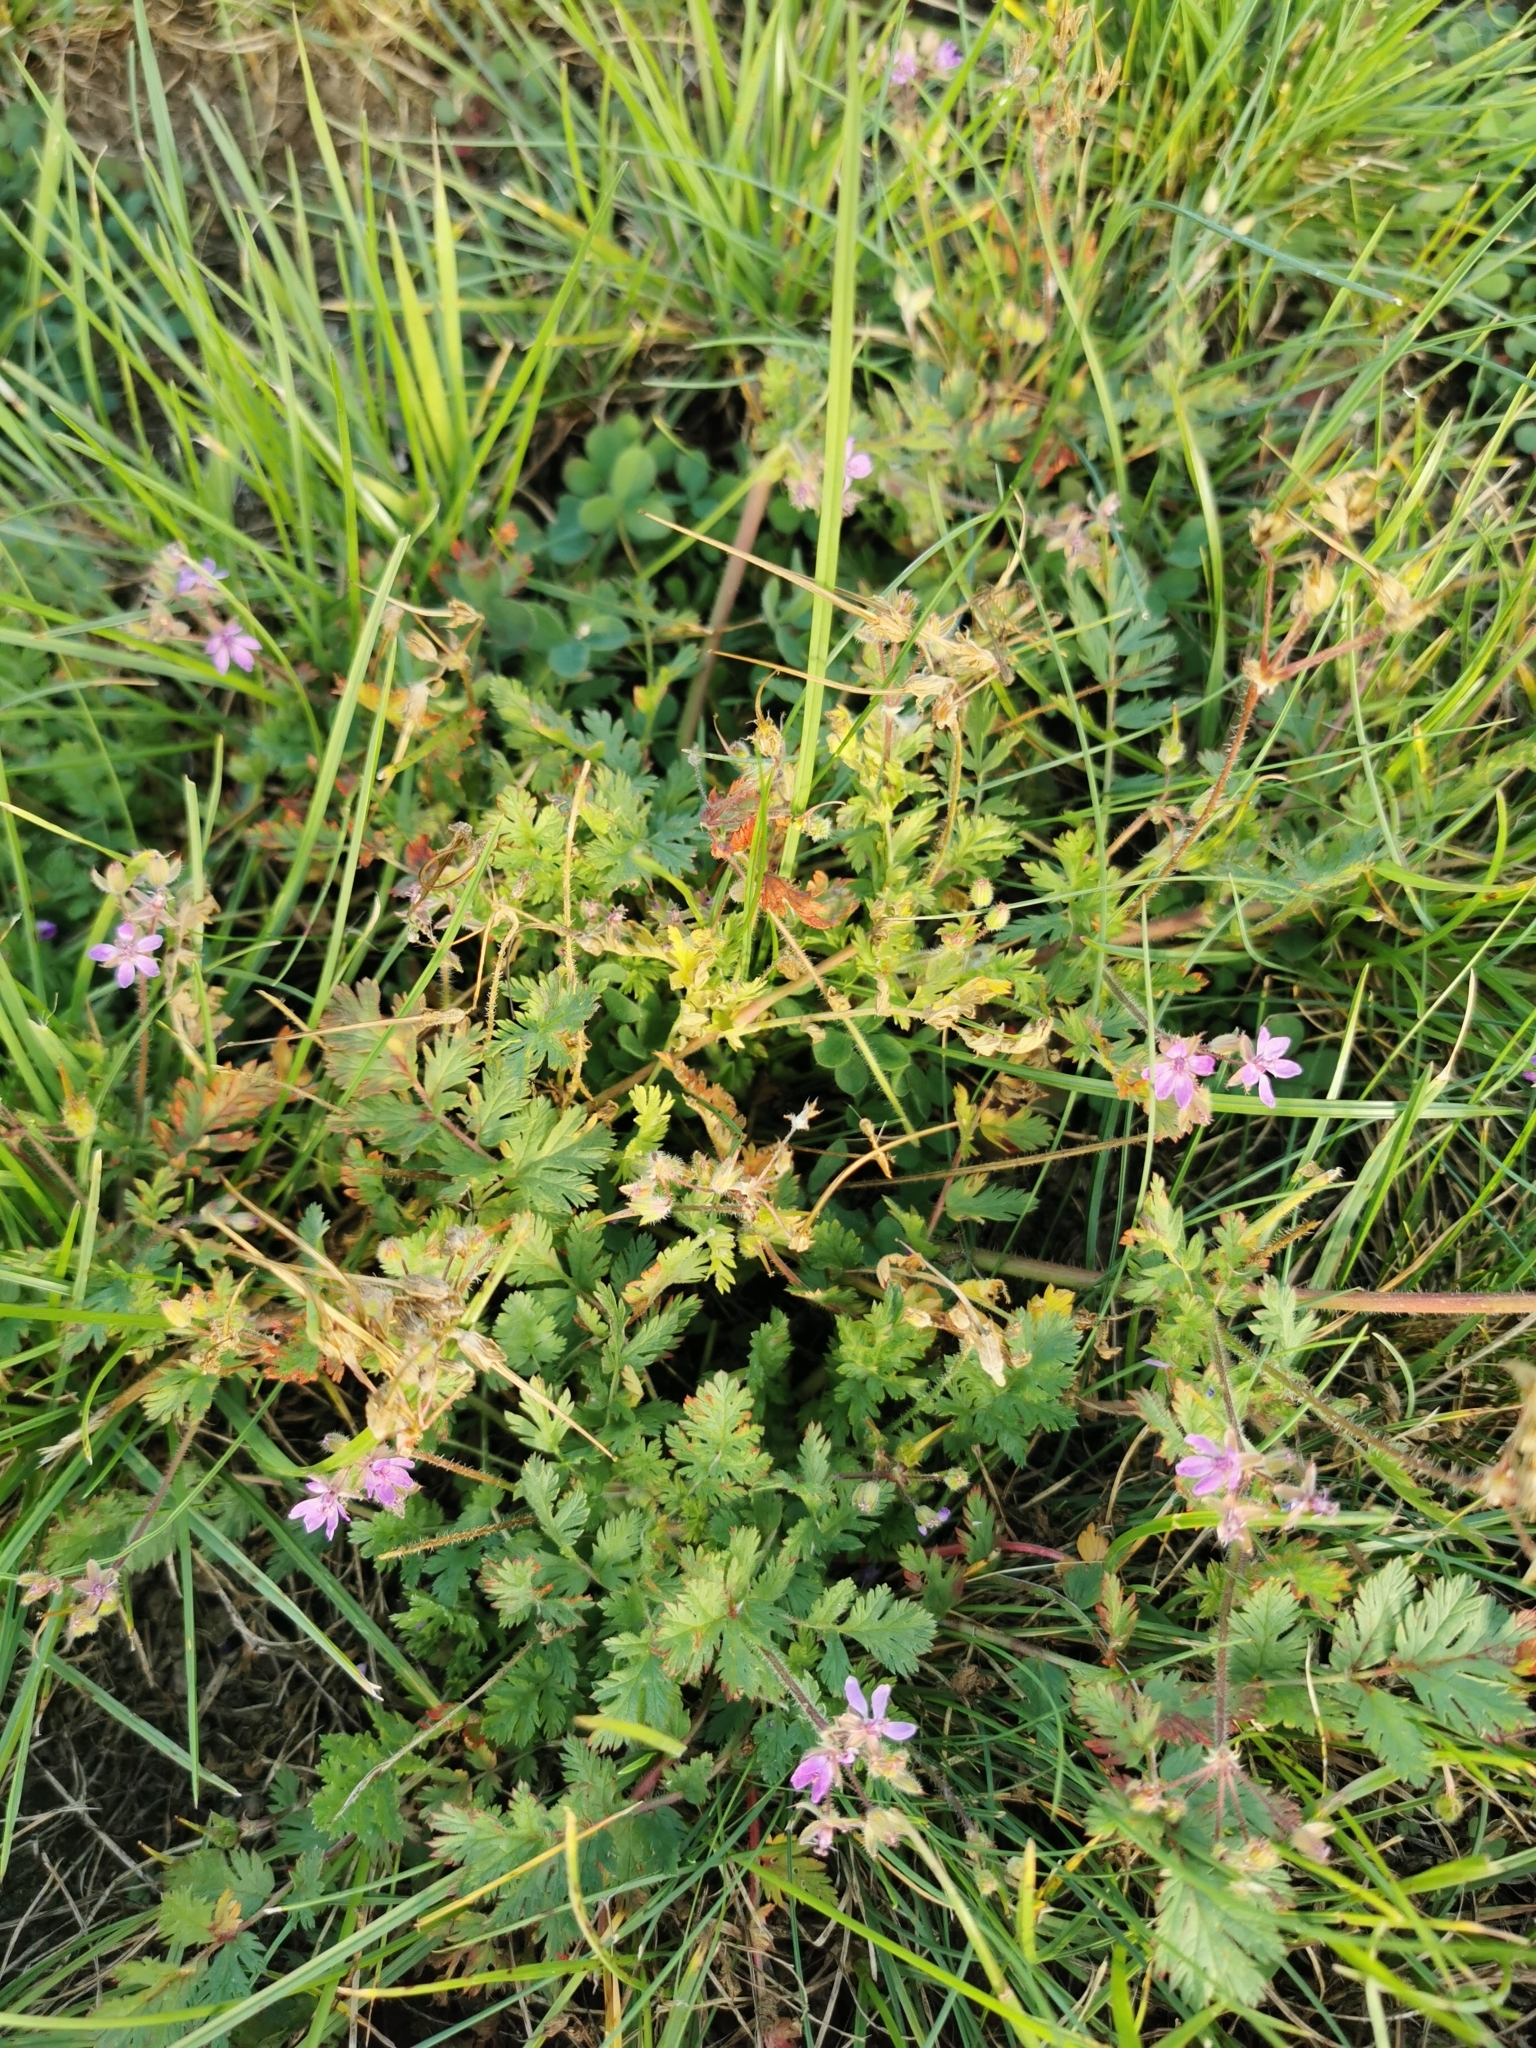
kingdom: Plantae
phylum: Tracheophyta
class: Magnoliopsida
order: Geraniales
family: Geraniaceae
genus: Erodium
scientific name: Erodium cicutarium
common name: Common stork's-bill
